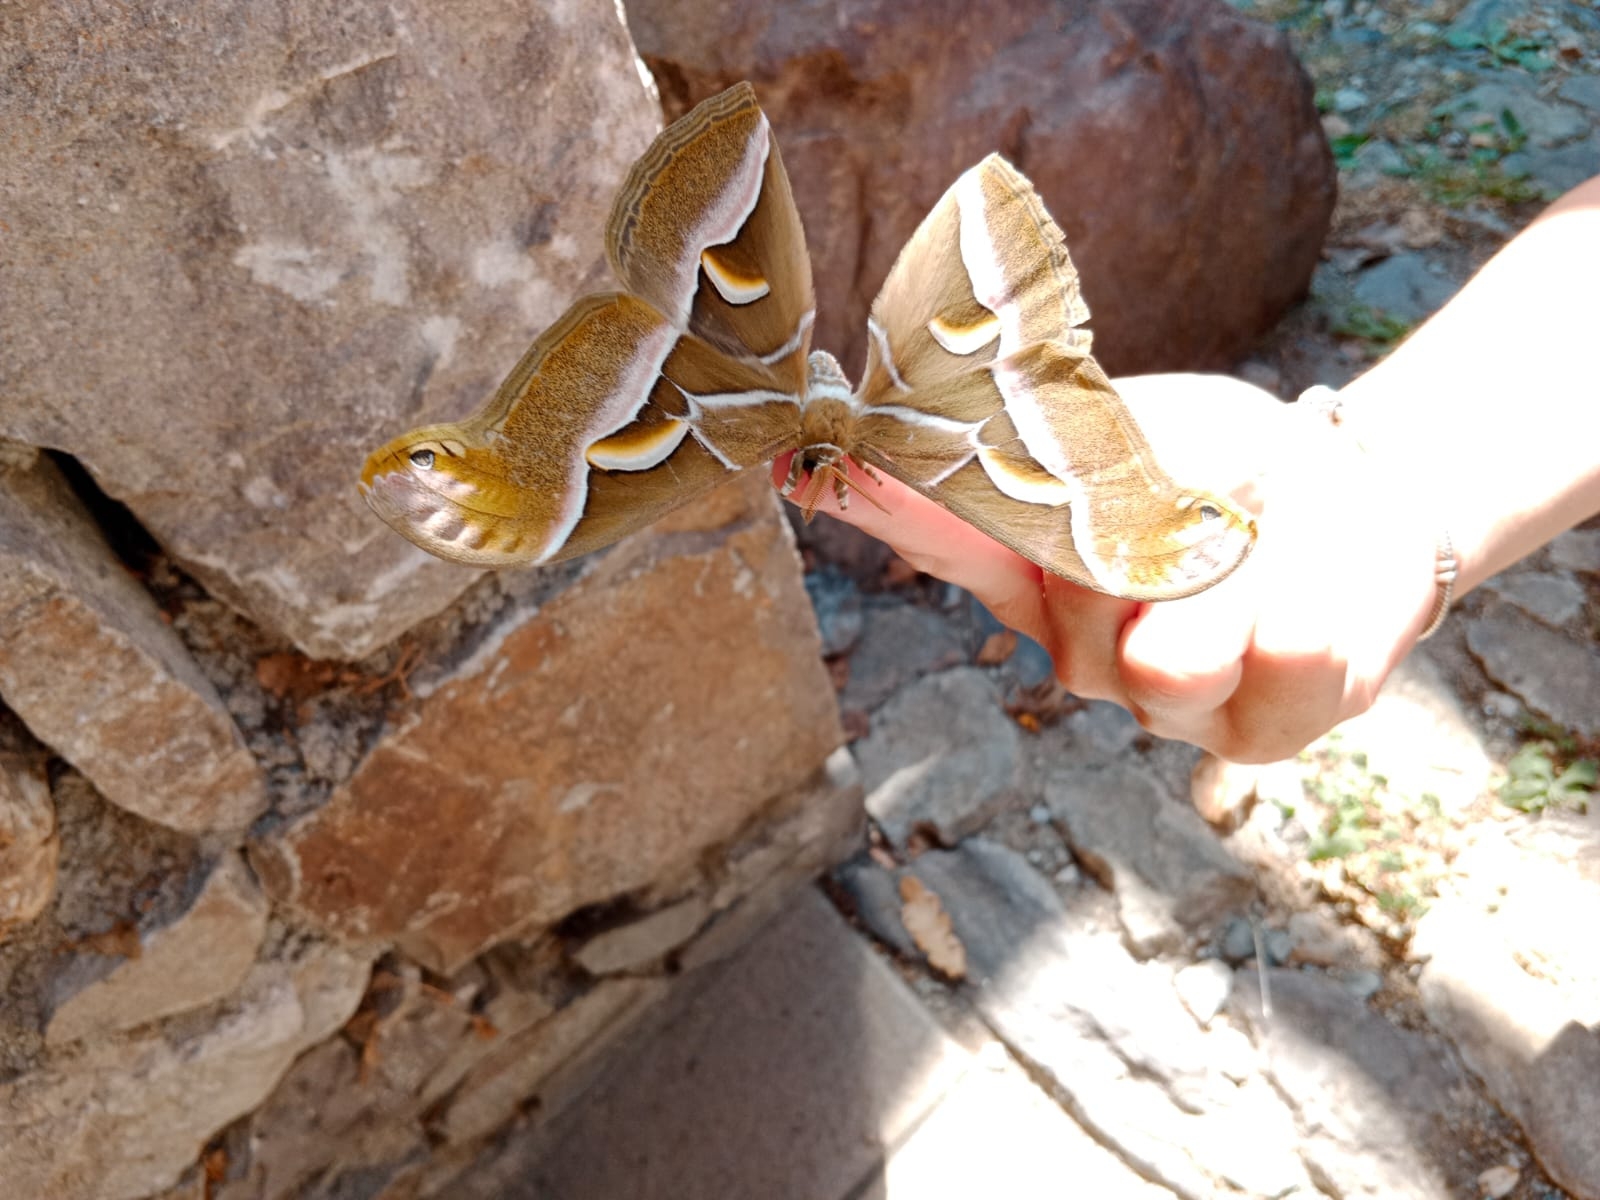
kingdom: Animalia
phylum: Arthropoda
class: Insecta
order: Lepidoptera
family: Saturniidae
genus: Samia
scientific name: Samia cynthia
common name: Ailanthus silkmoth
